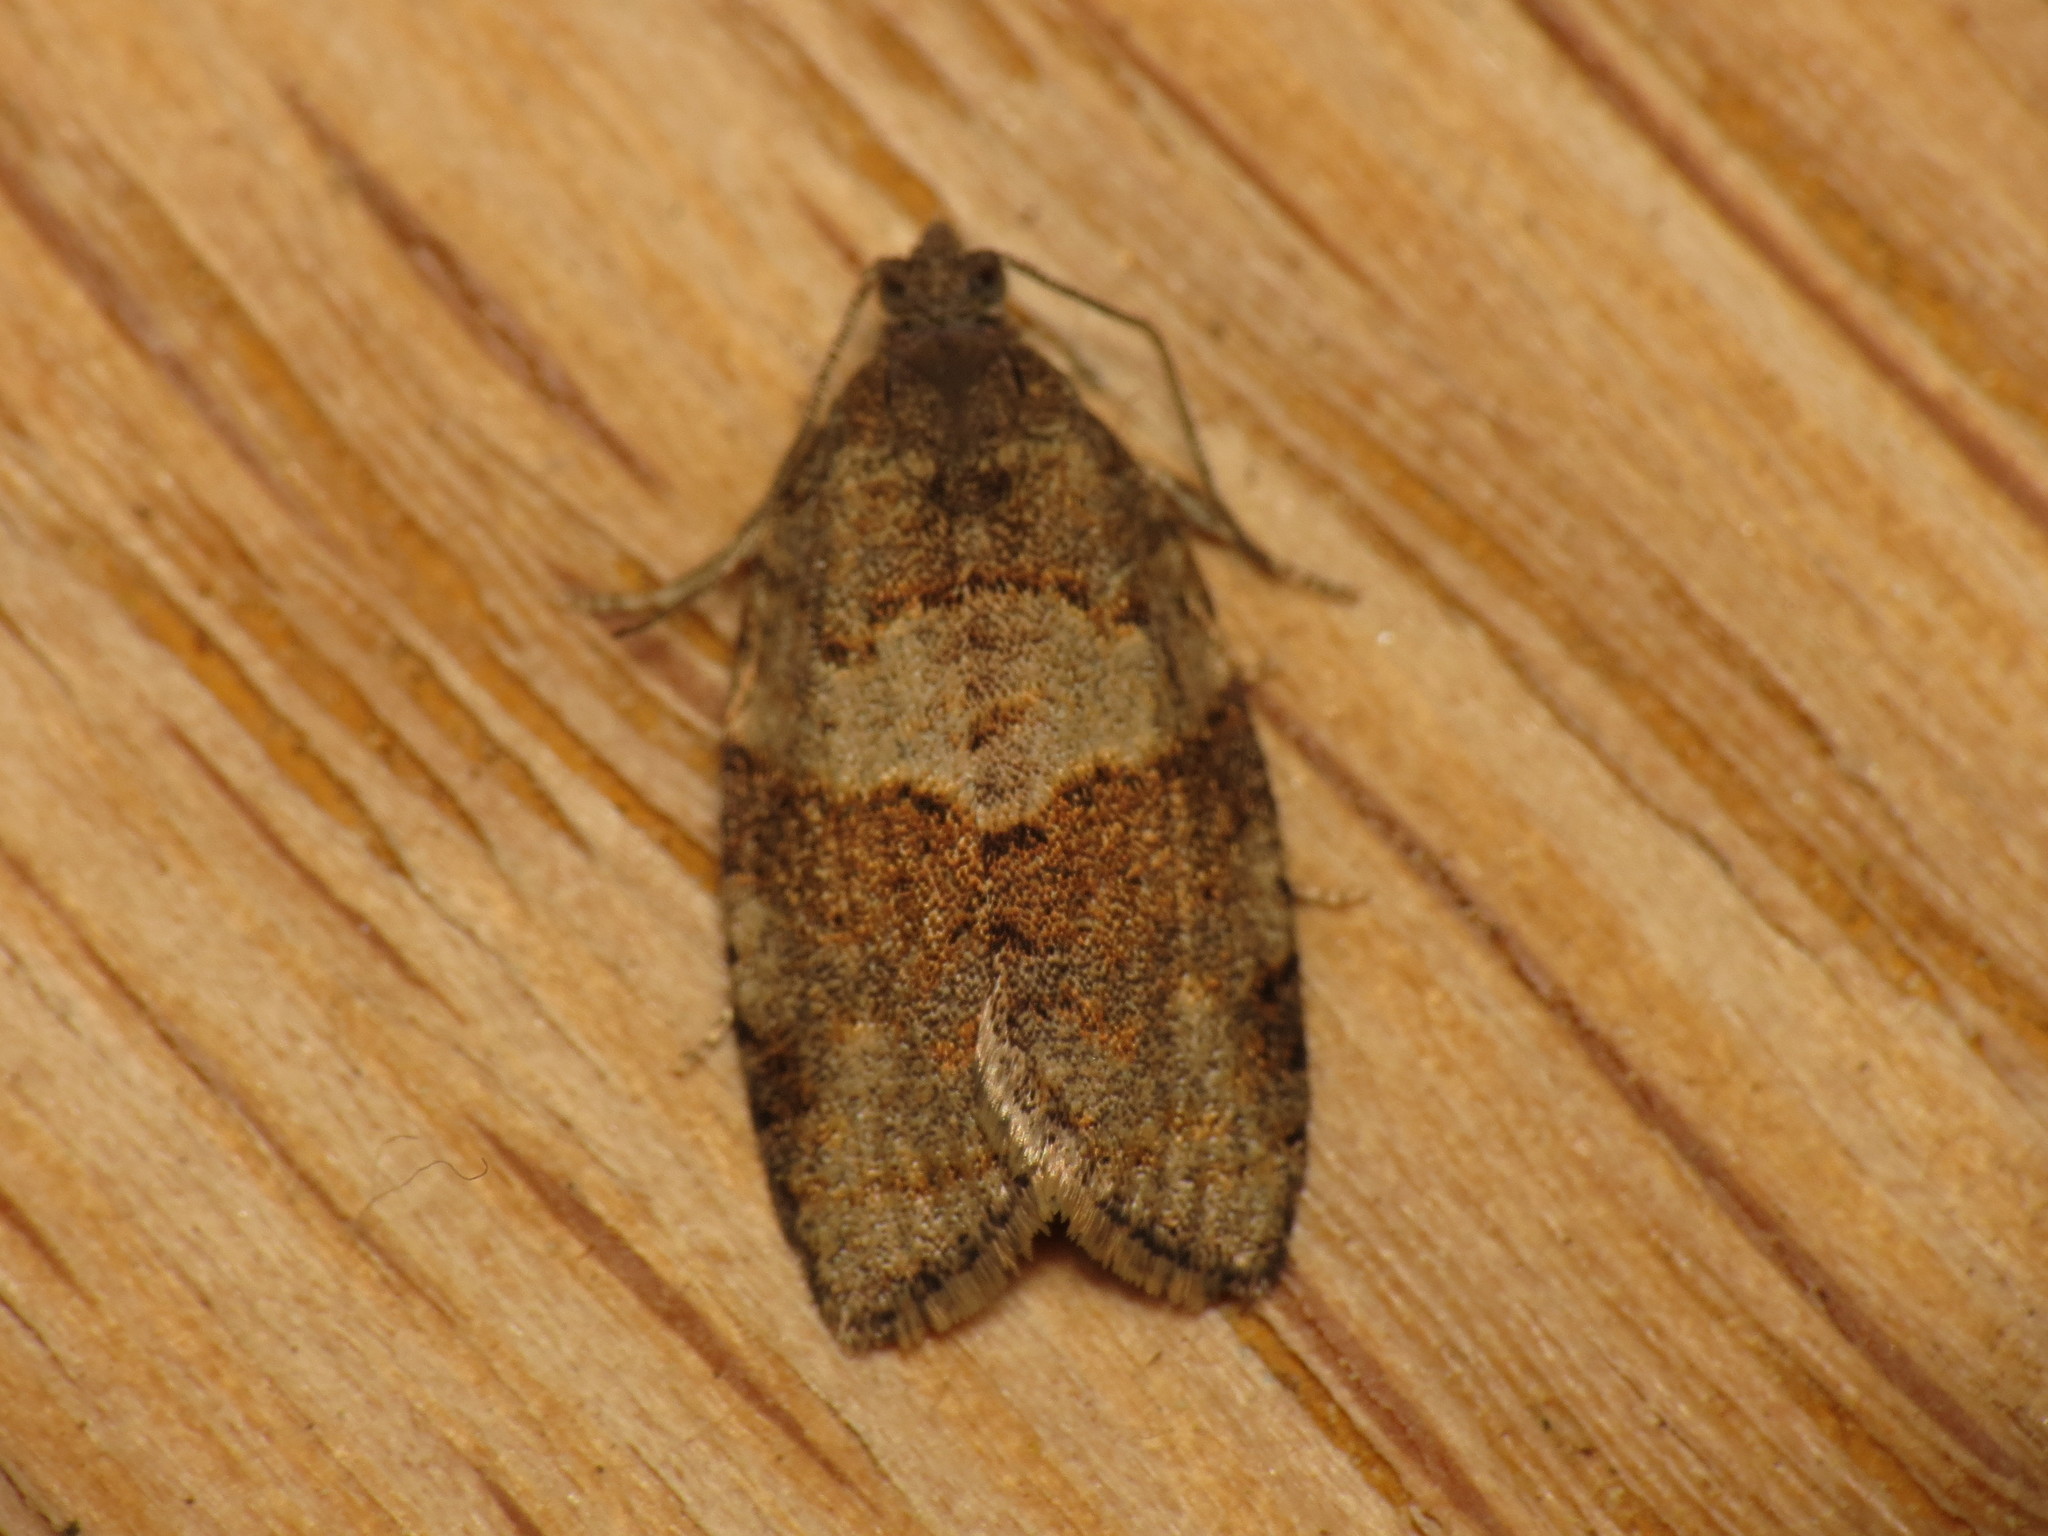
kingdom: Animalia
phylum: Arthropoda
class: Insecta
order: Lepidoptera
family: Tortricidae
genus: Syndemis
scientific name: Syndemis musculana
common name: Dark-barred twist
